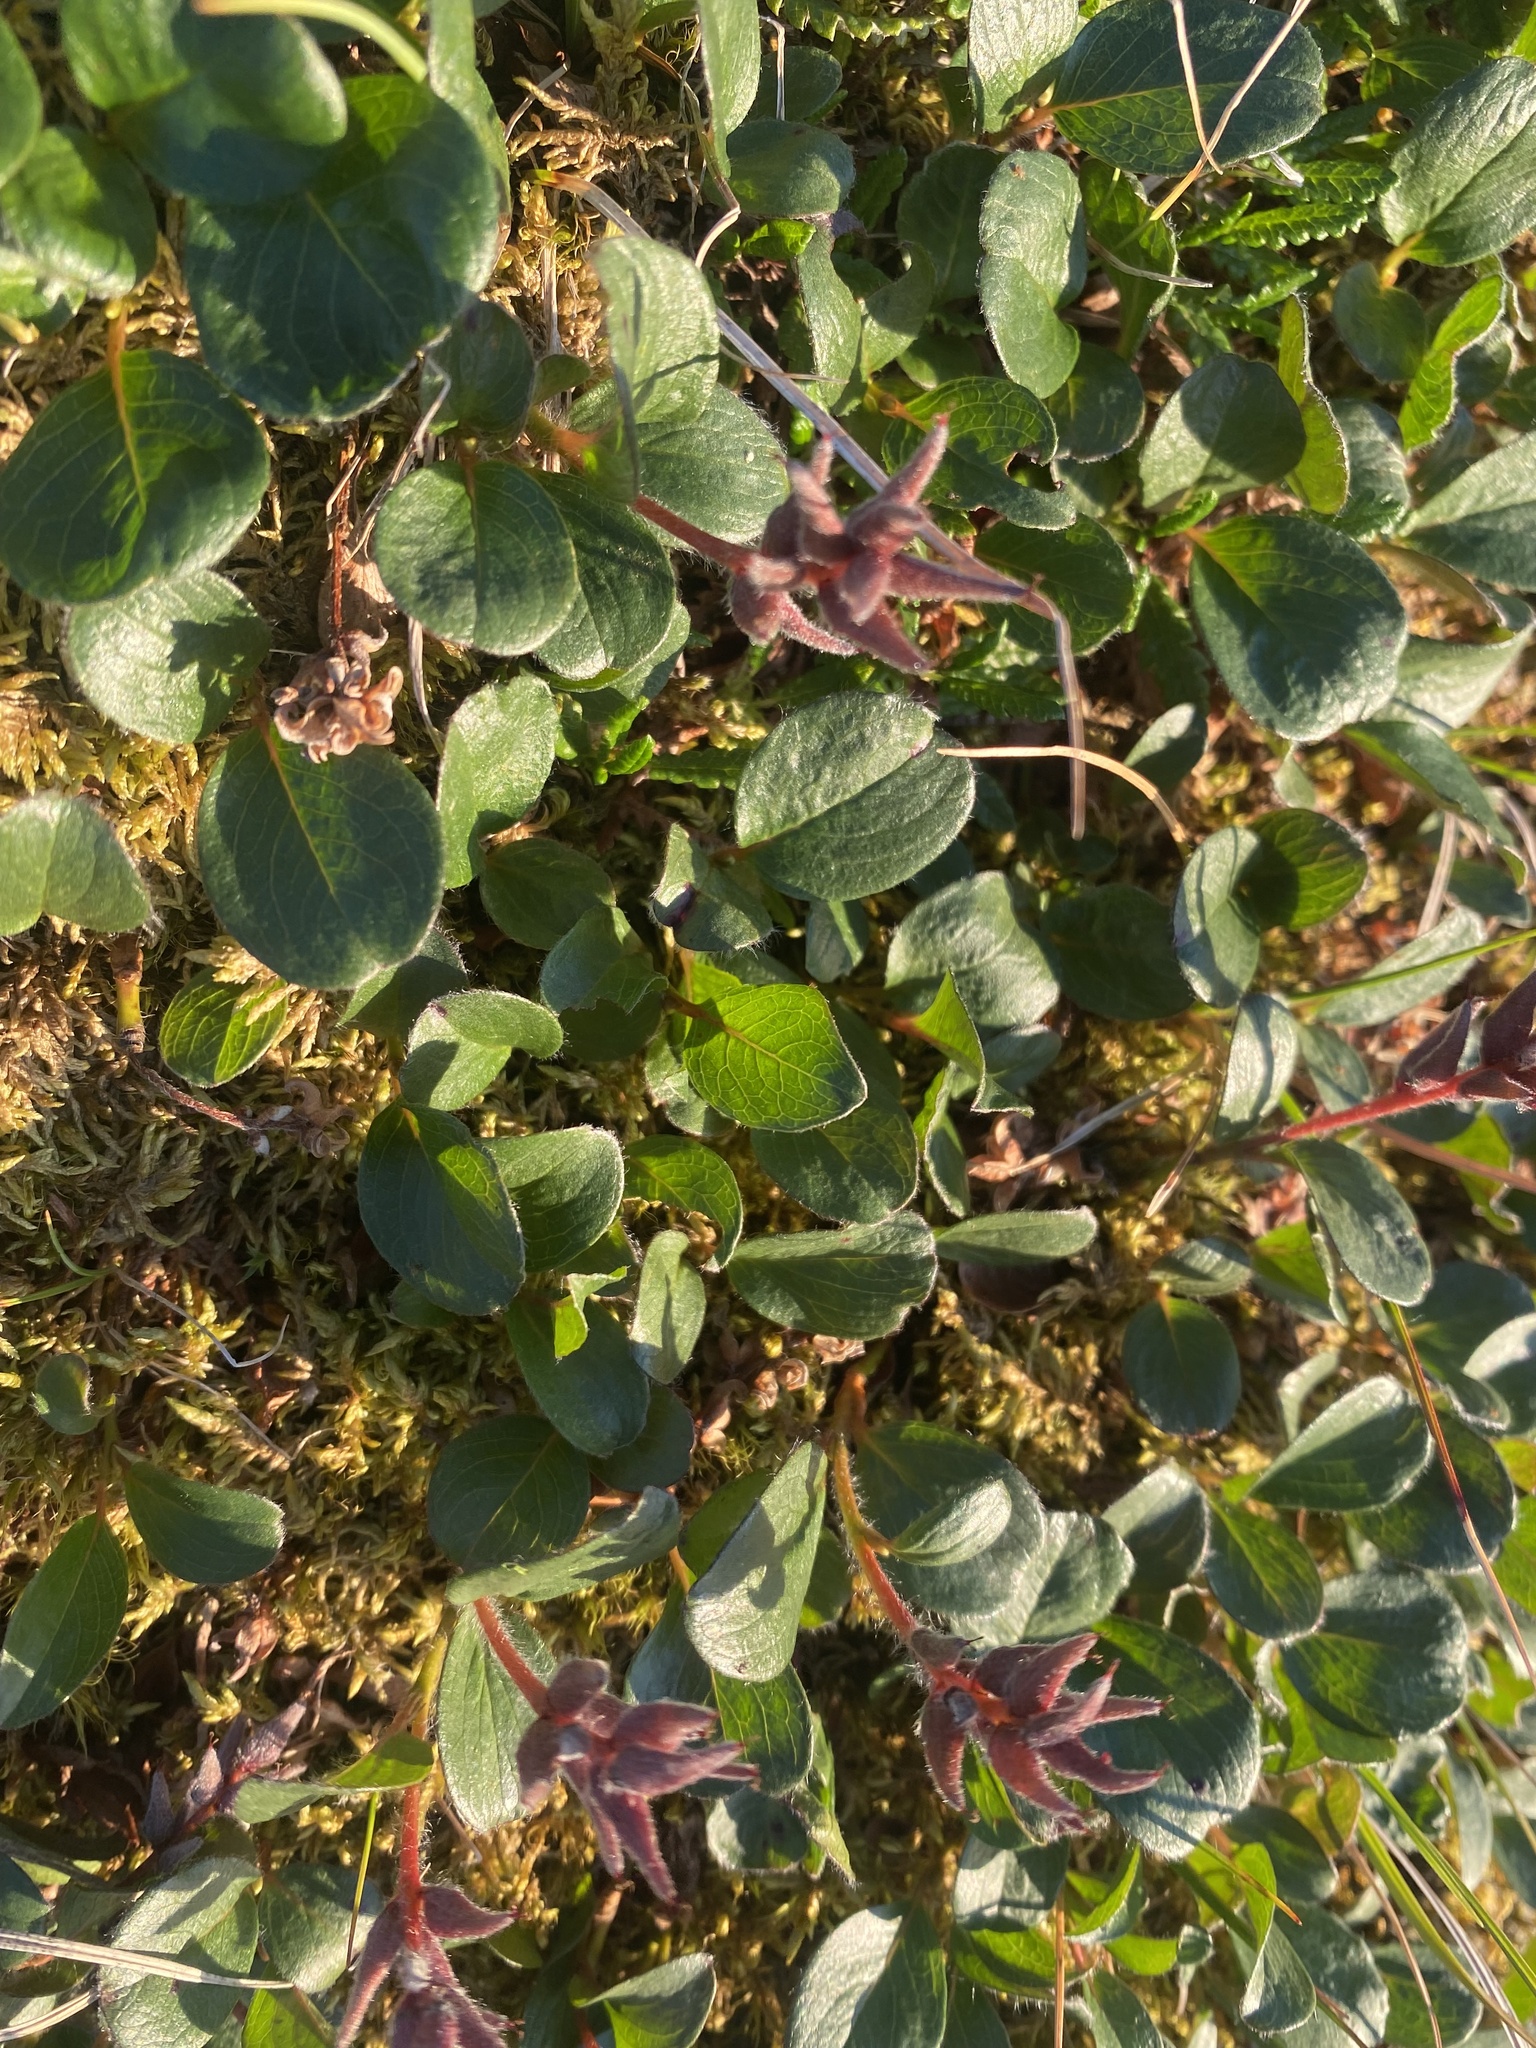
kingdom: Plantae
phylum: Tracheophyta
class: Magnoliopsida
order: Malpighiales
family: Salicaceae
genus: Salix
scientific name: Salix polaris
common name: Polar willow
